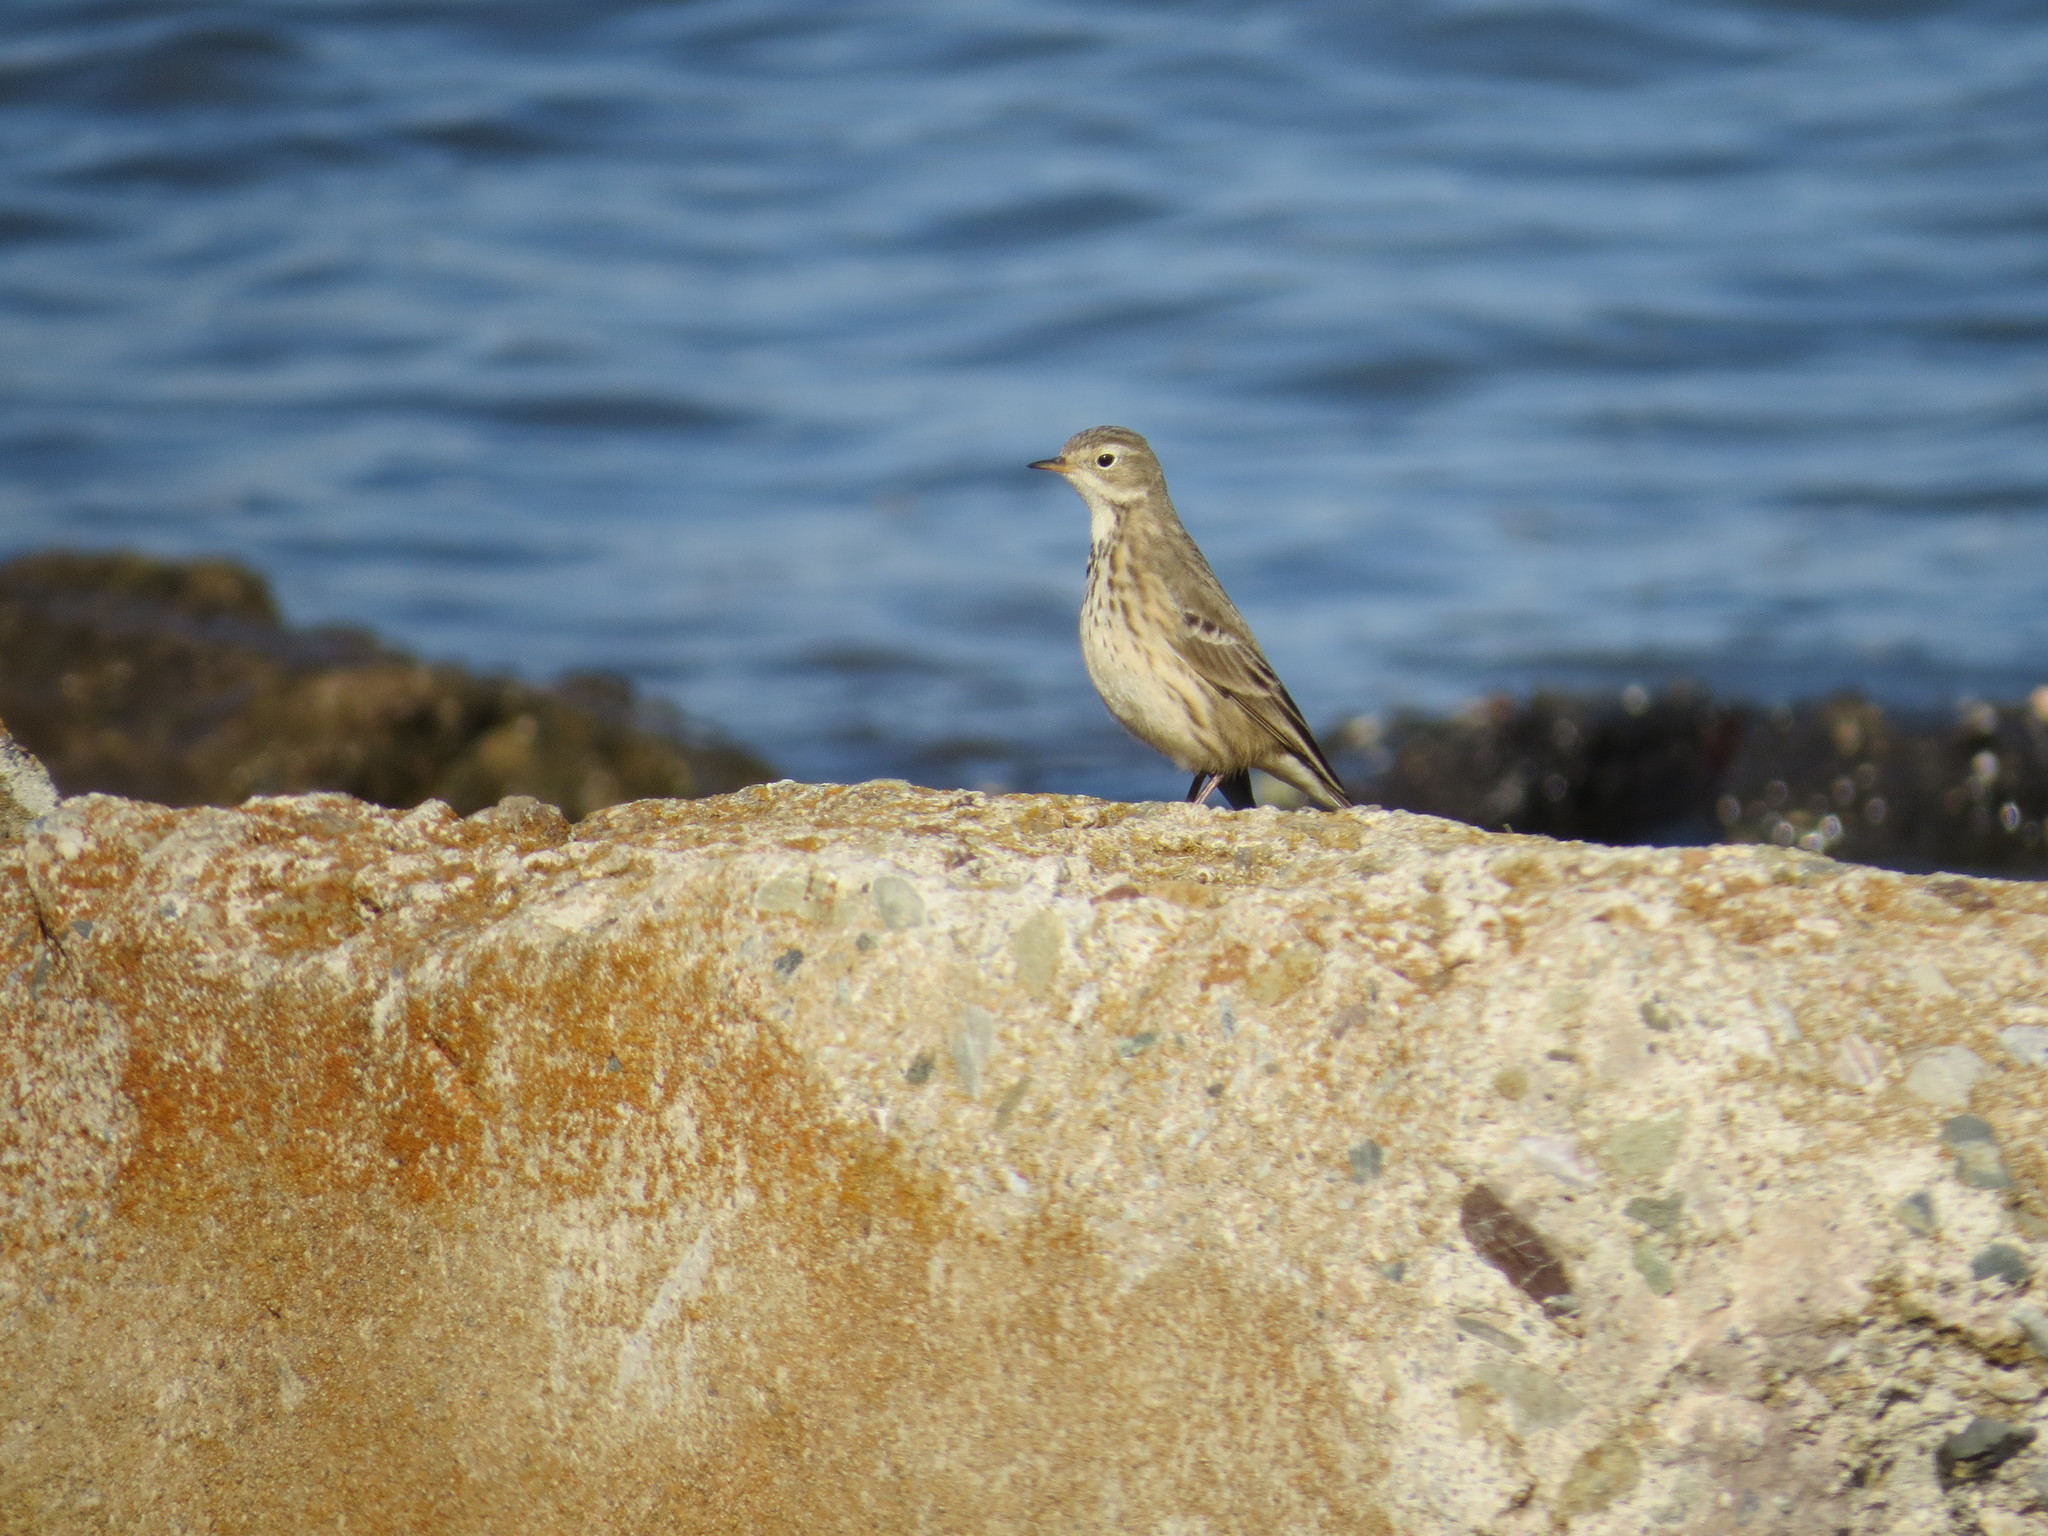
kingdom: Animalia
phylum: Chordata
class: Aves
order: Passeriformes
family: Motacillidae
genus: Anthus
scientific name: Anthus rubescens
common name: Buff-bellied pipit
